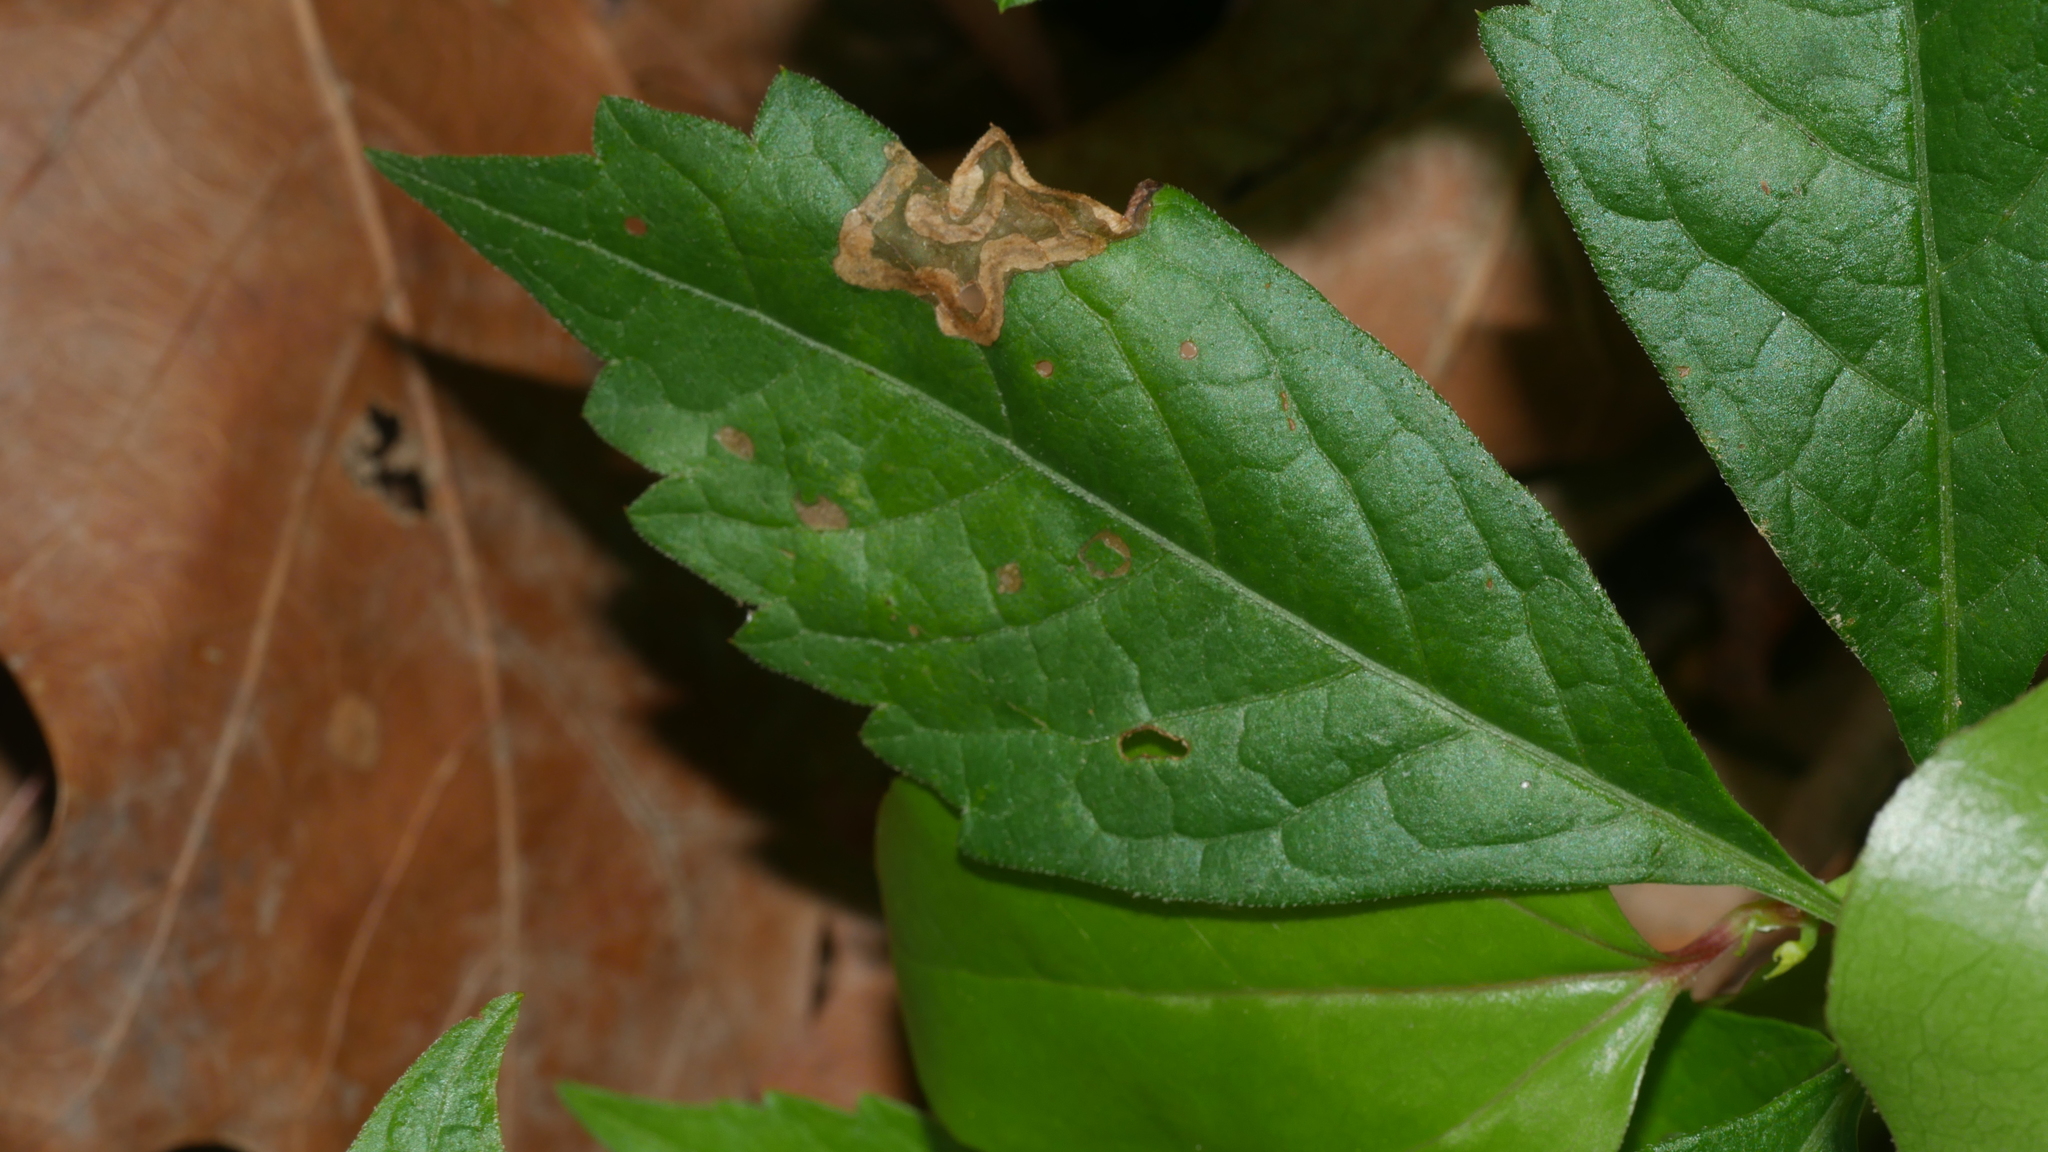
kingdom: Animalia
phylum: Arthropoda
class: Insecta
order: Coleoptera
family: Curculionidae
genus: Orchestomerus
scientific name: Orchestomerus eisemani
